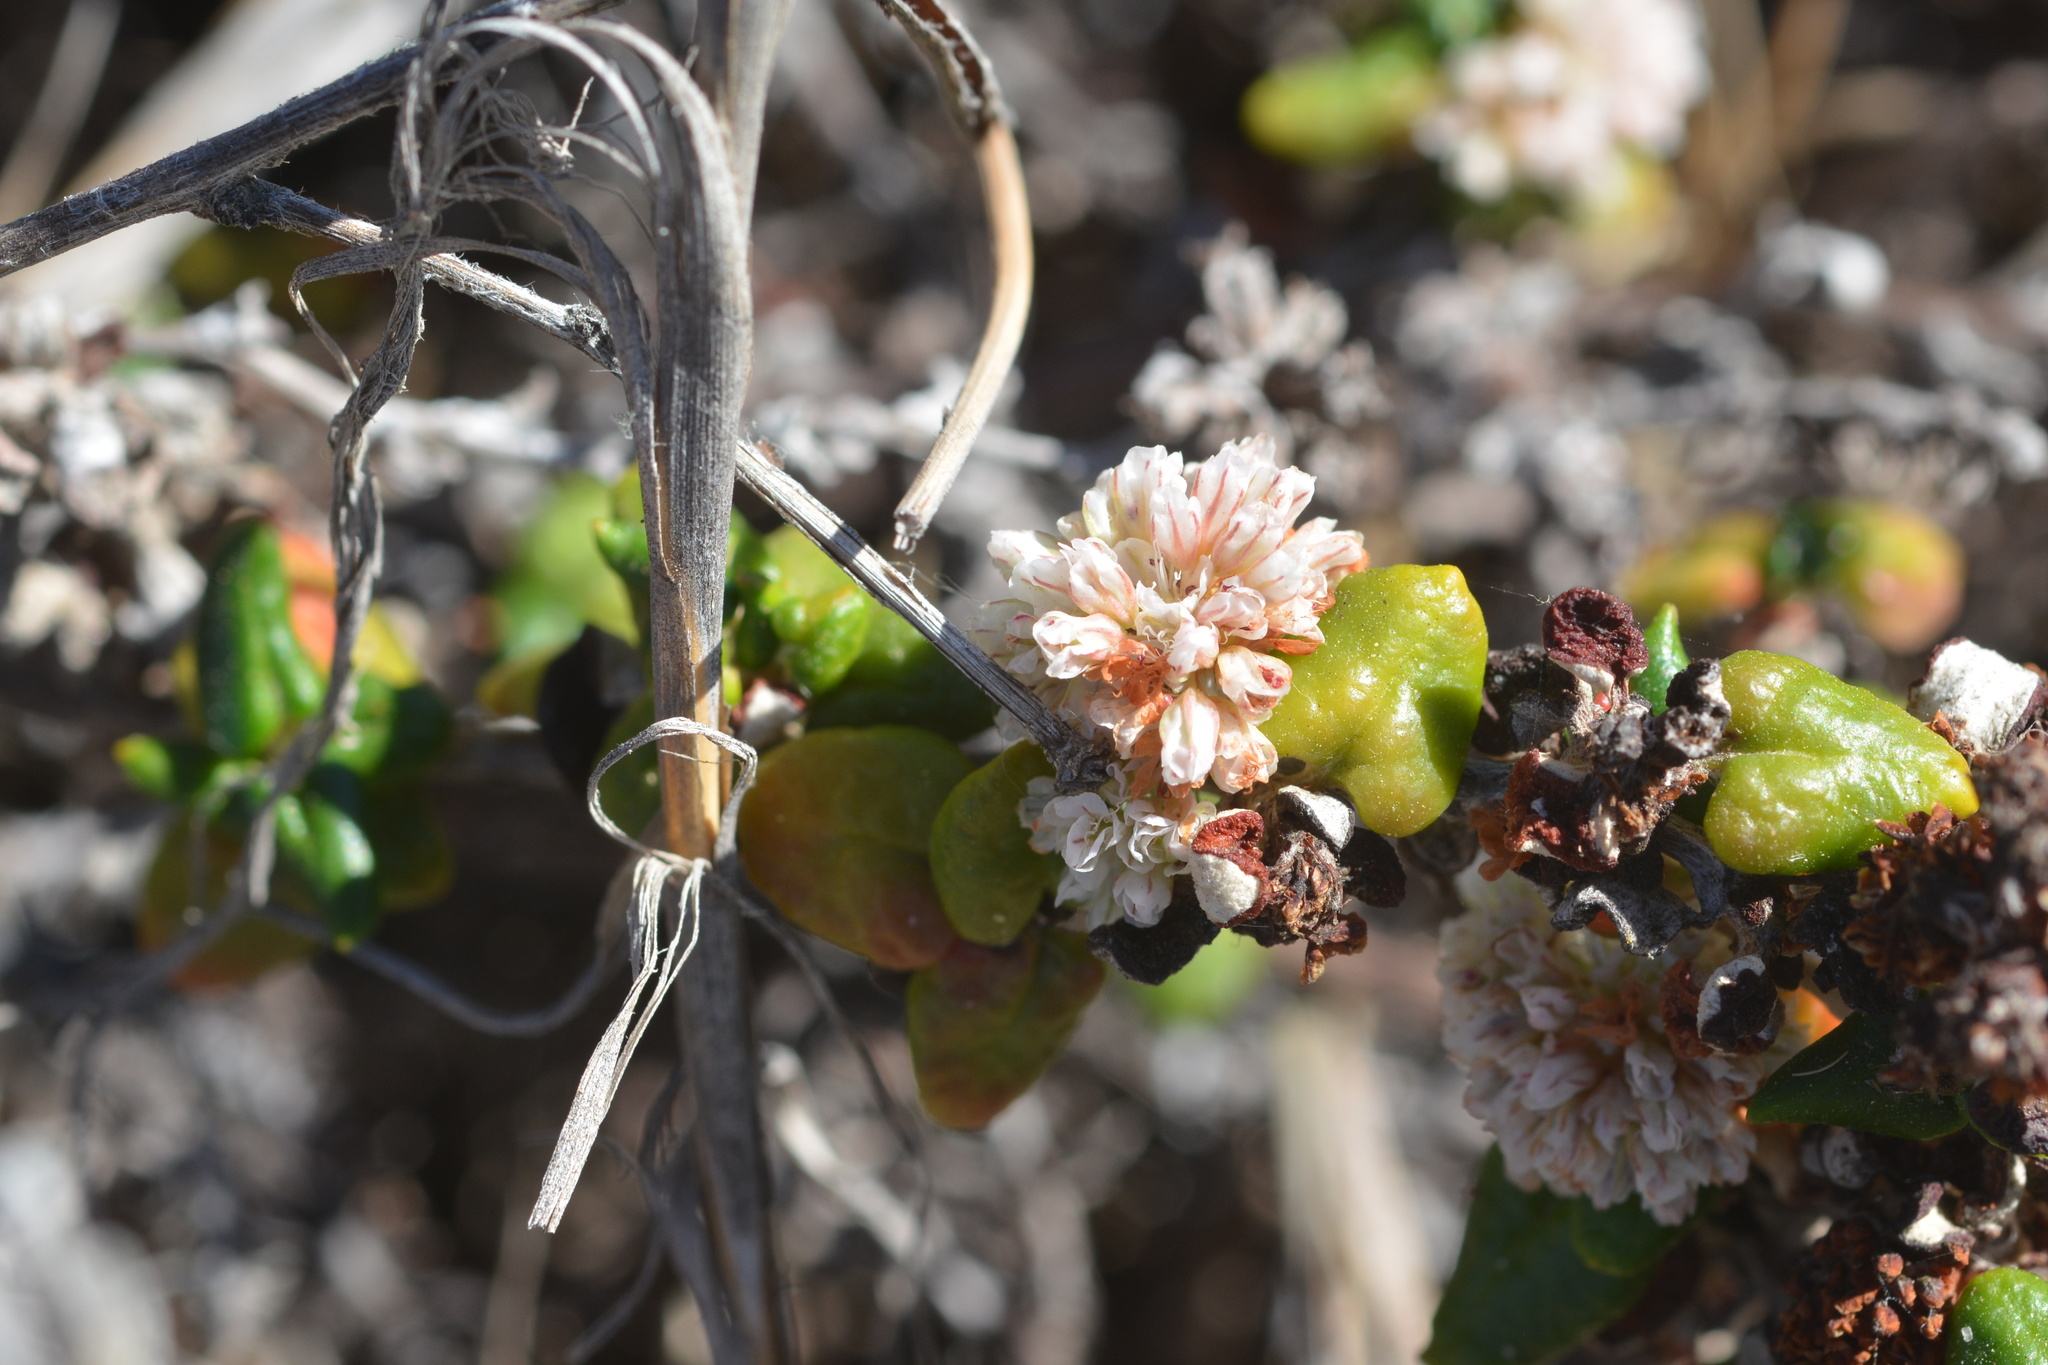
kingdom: Plantae
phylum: Tracheophyta
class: Magnoliopsida
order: Caryophyllales
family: Polygonaceae
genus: Eriogonum
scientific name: Eriogonum parvifolium
